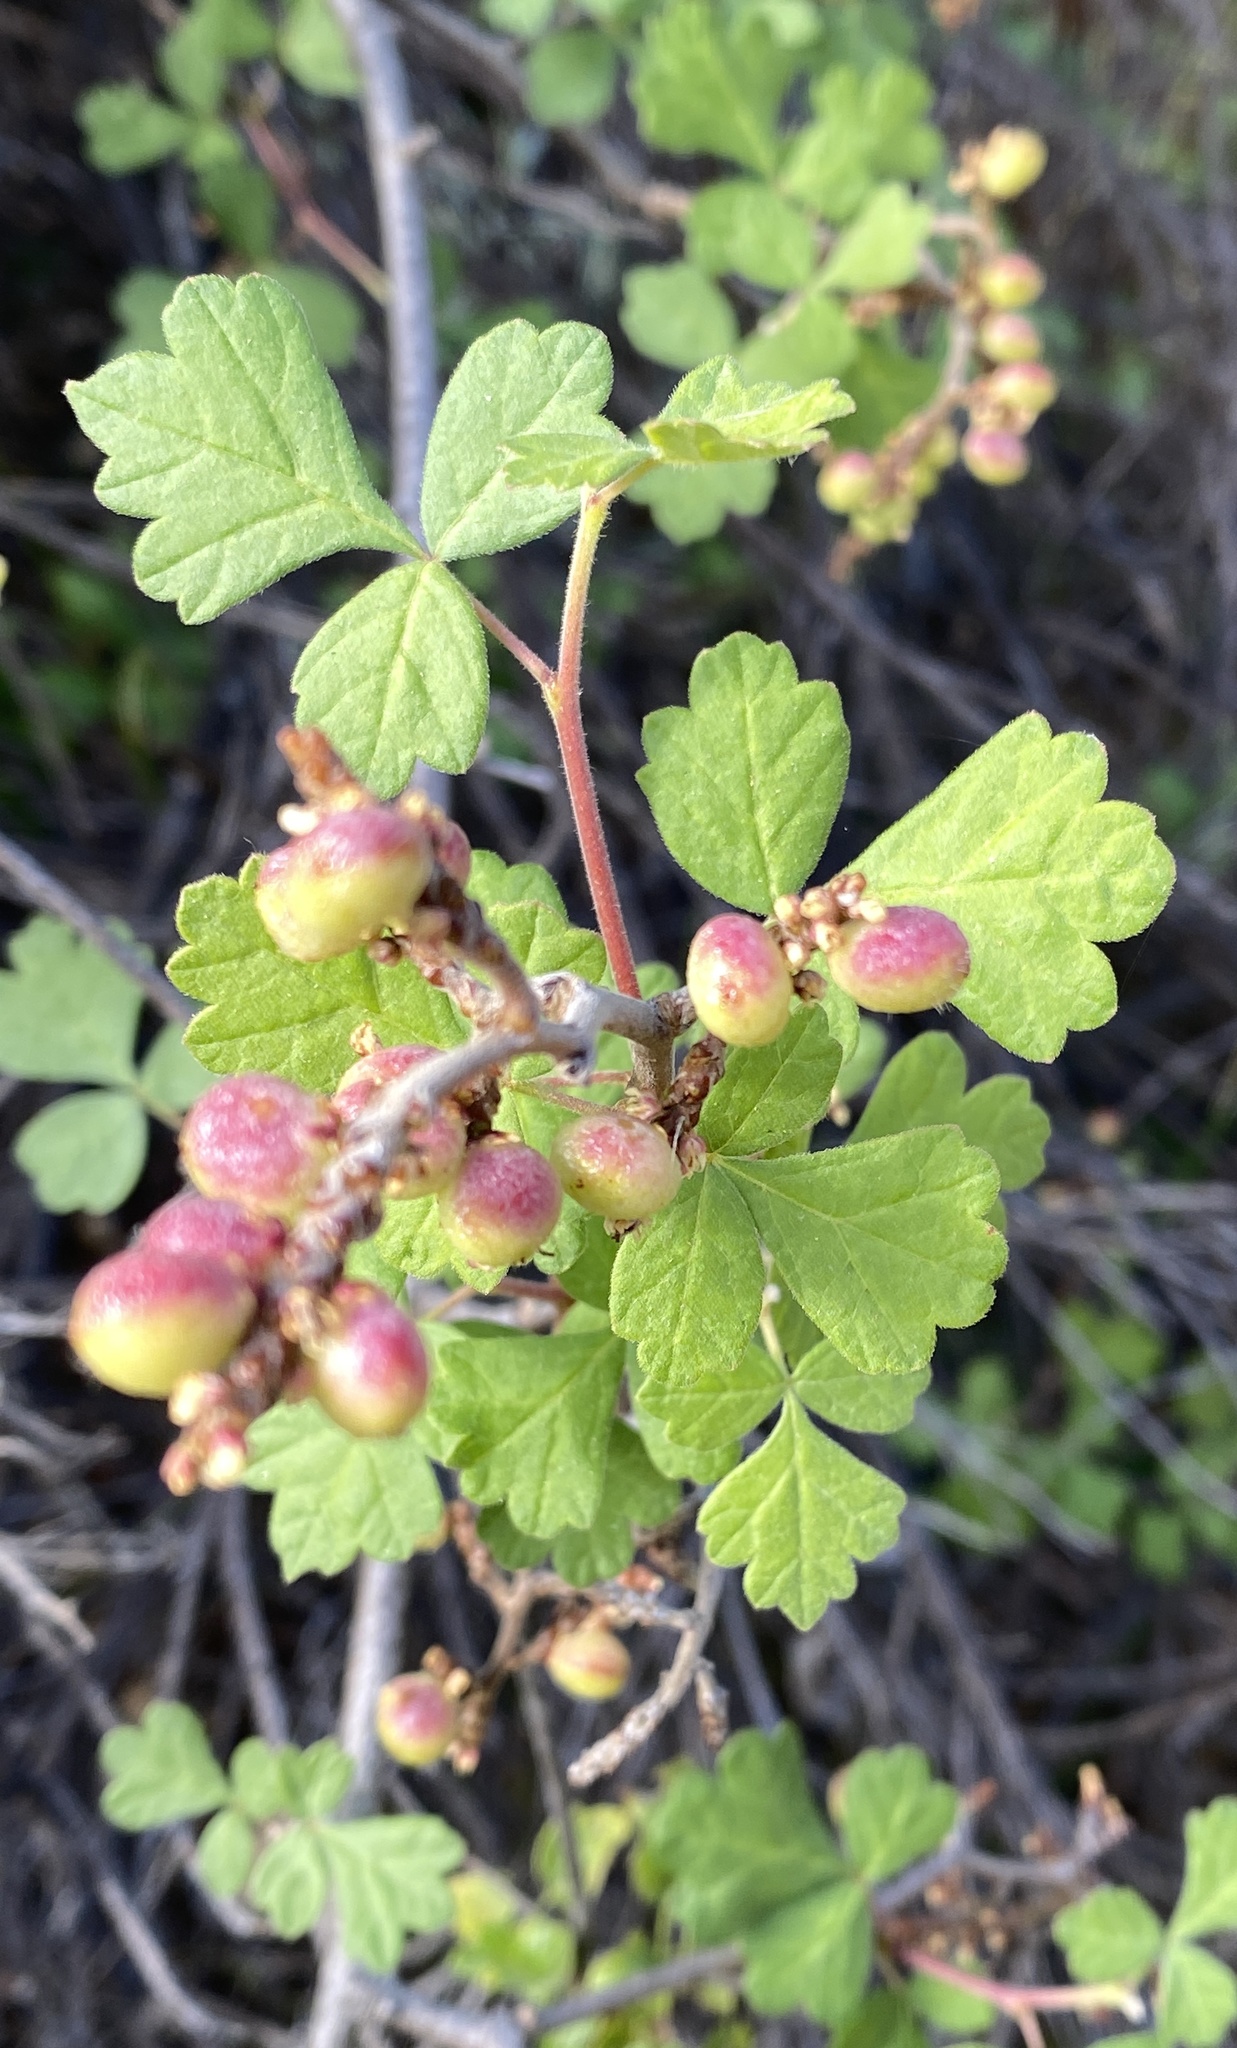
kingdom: Plantae
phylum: Tracheophyta
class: Magnoliopsida
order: Sapindales
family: Anacardiaceae
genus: Rhus
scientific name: Rhus aromatica
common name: Aromatic sumac
